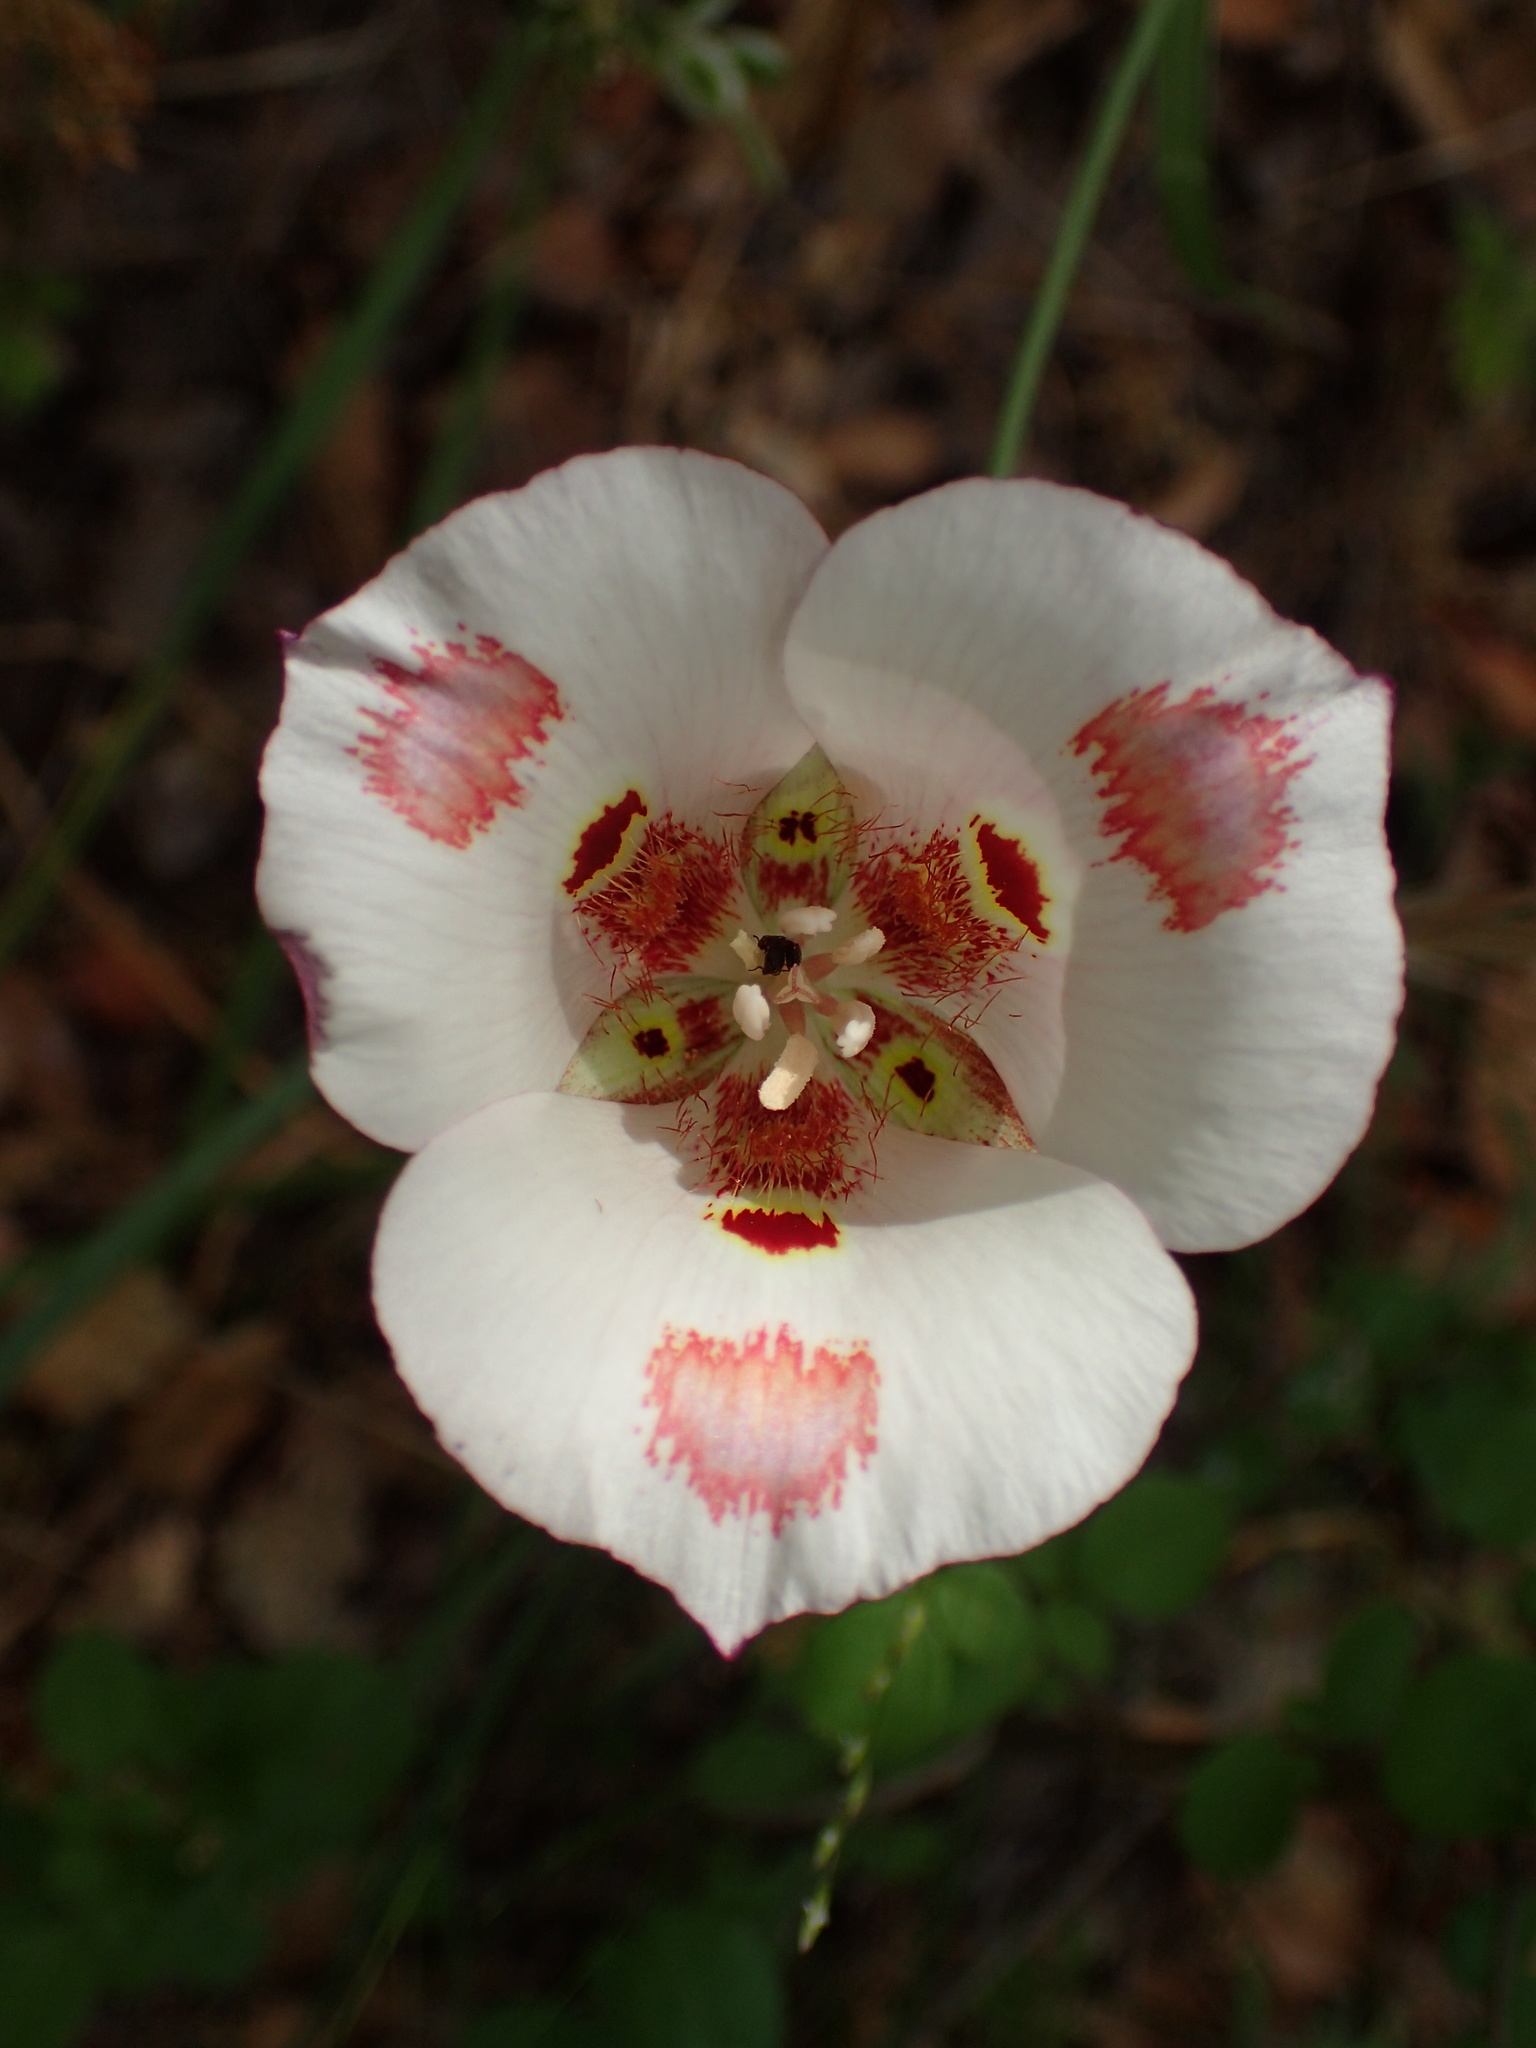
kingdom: Plantae
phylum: Tracheophyta
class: Liliopsida
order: Liliales
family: Liliaceae
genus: Calochortus
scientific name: Calochortus venustus
